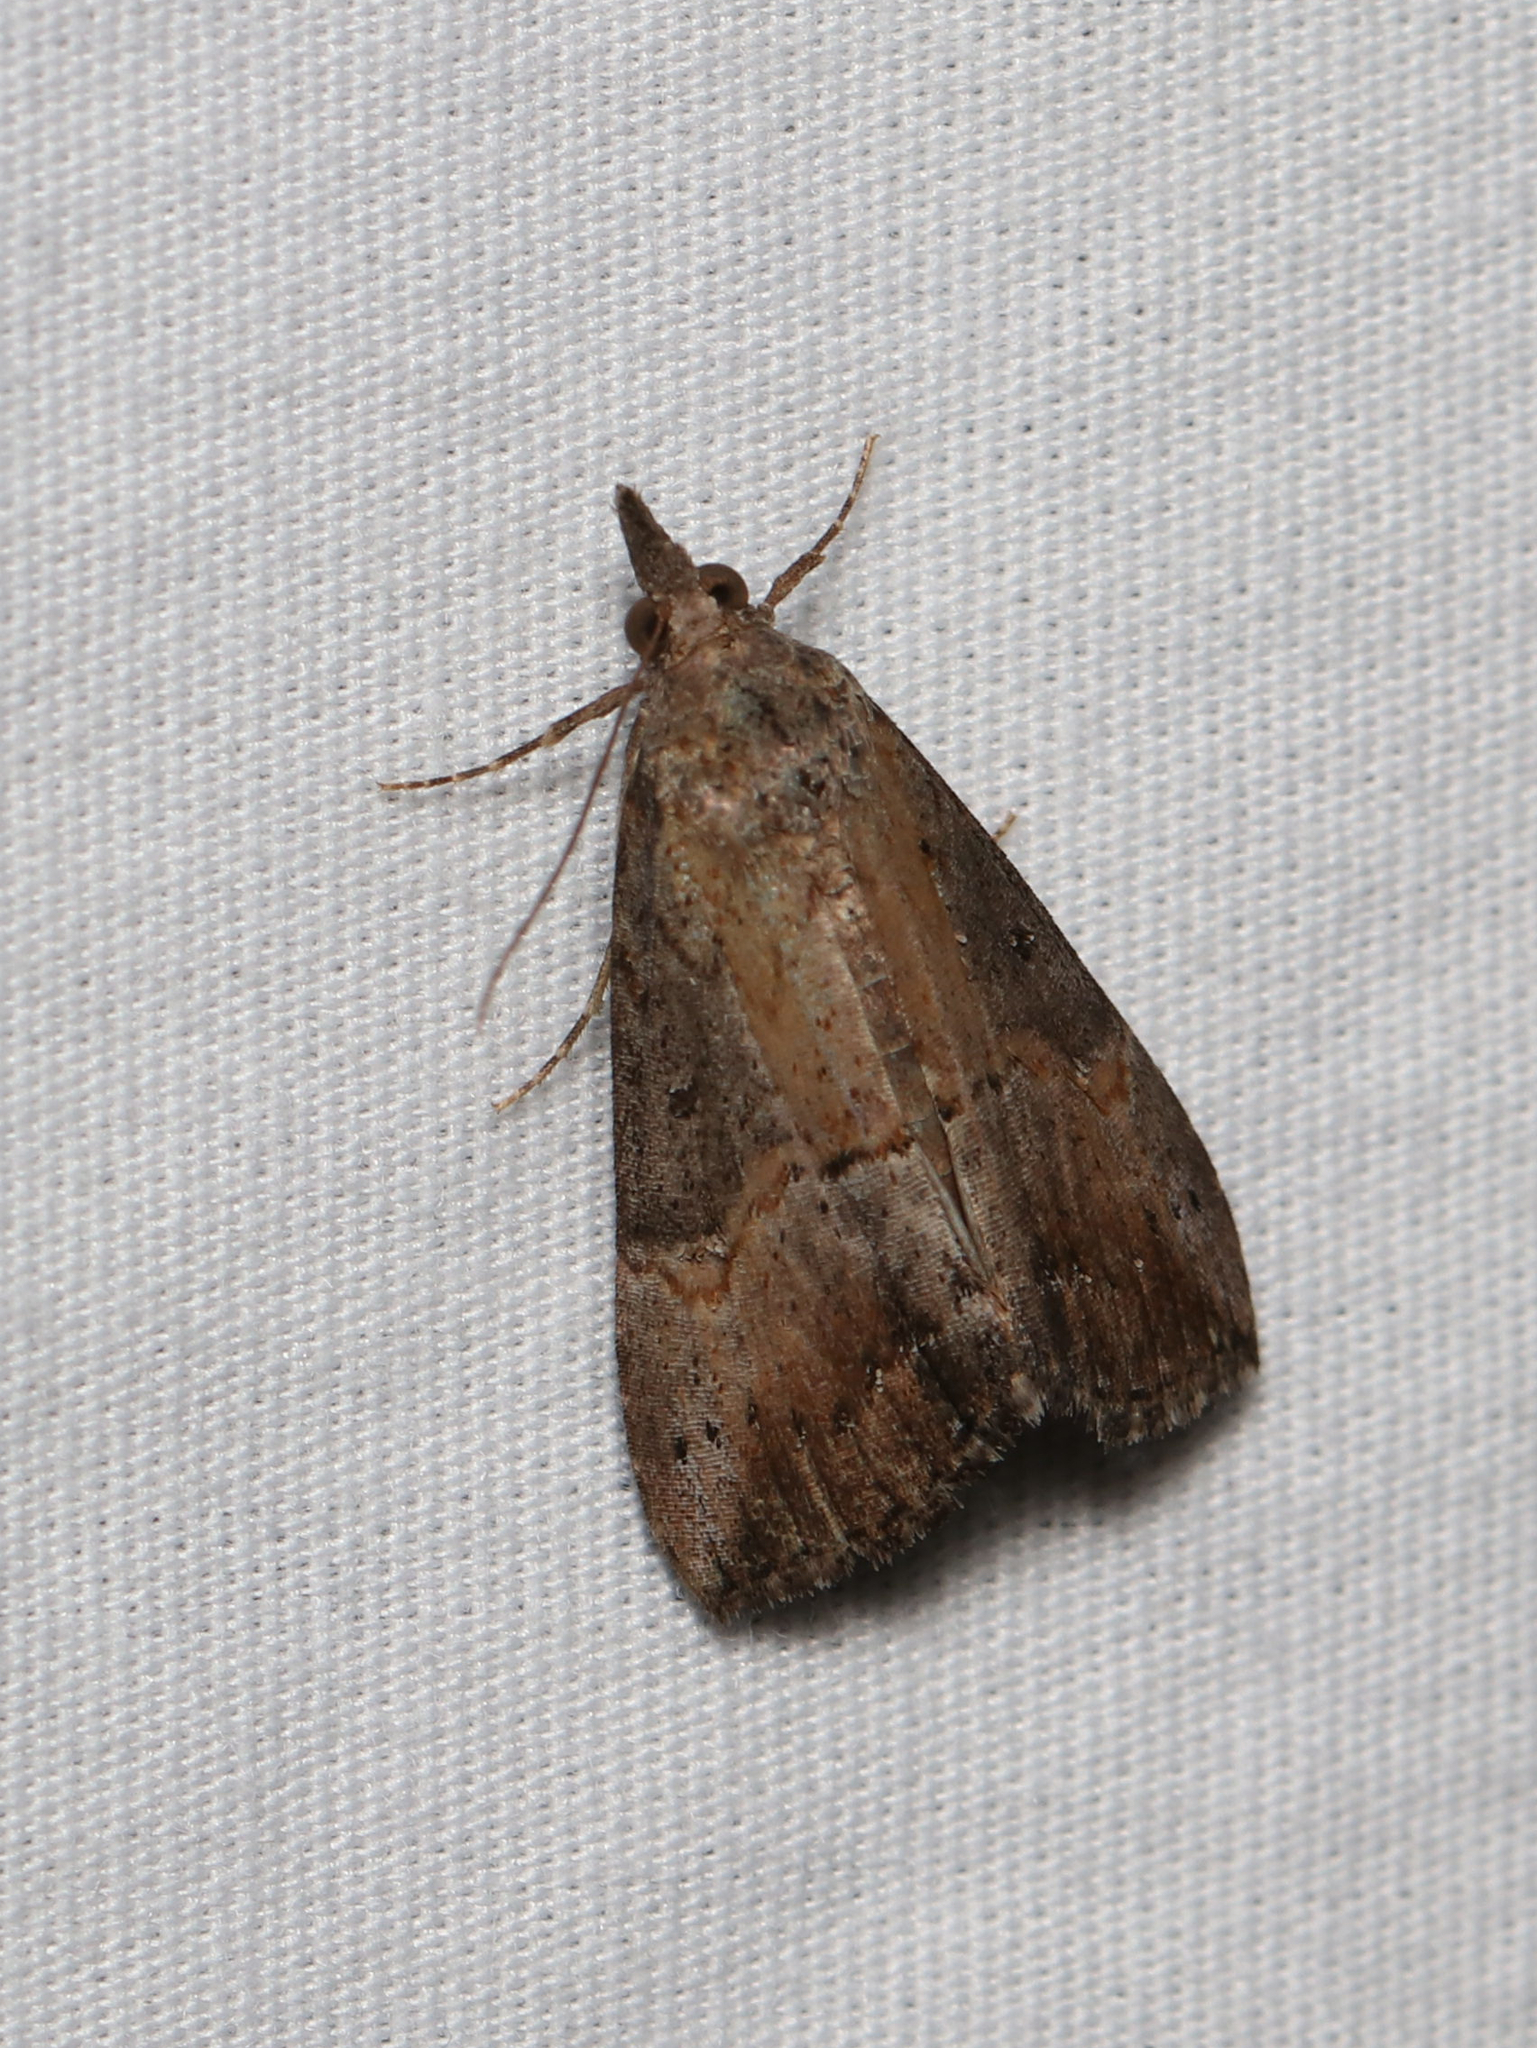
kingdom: Animalia
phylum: Arthropoda
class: Insecta
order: Lepidoptera
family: Erebidae
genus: Hypena
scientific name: Hypena scabra
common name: Green cloverworm
